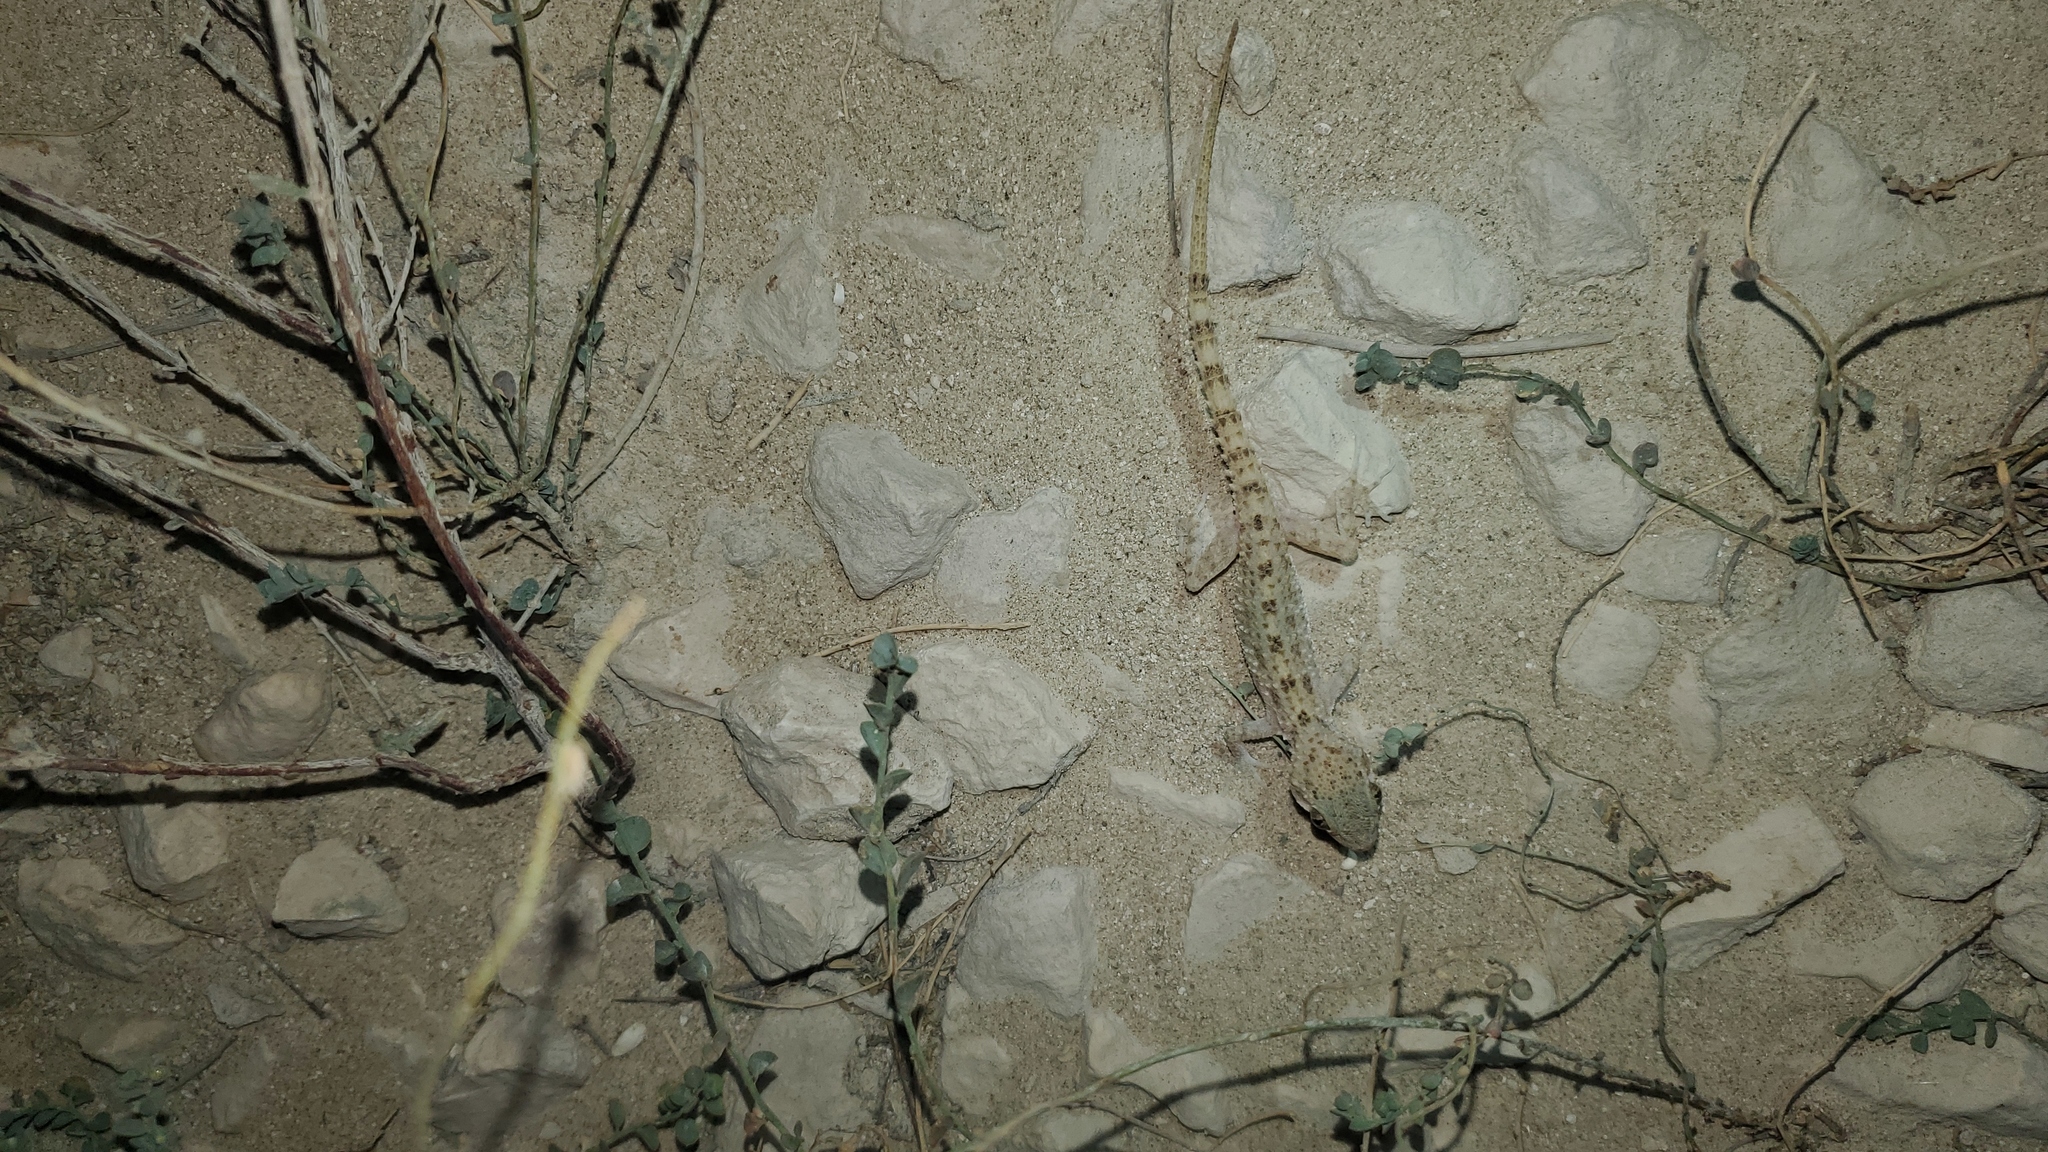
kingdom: Animalia
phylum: Chordata
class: Squamata
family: Gekkonidae
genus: Cyrtopodion
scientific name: Cyrtopodion scabrum
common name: Rough-tailed gecko
